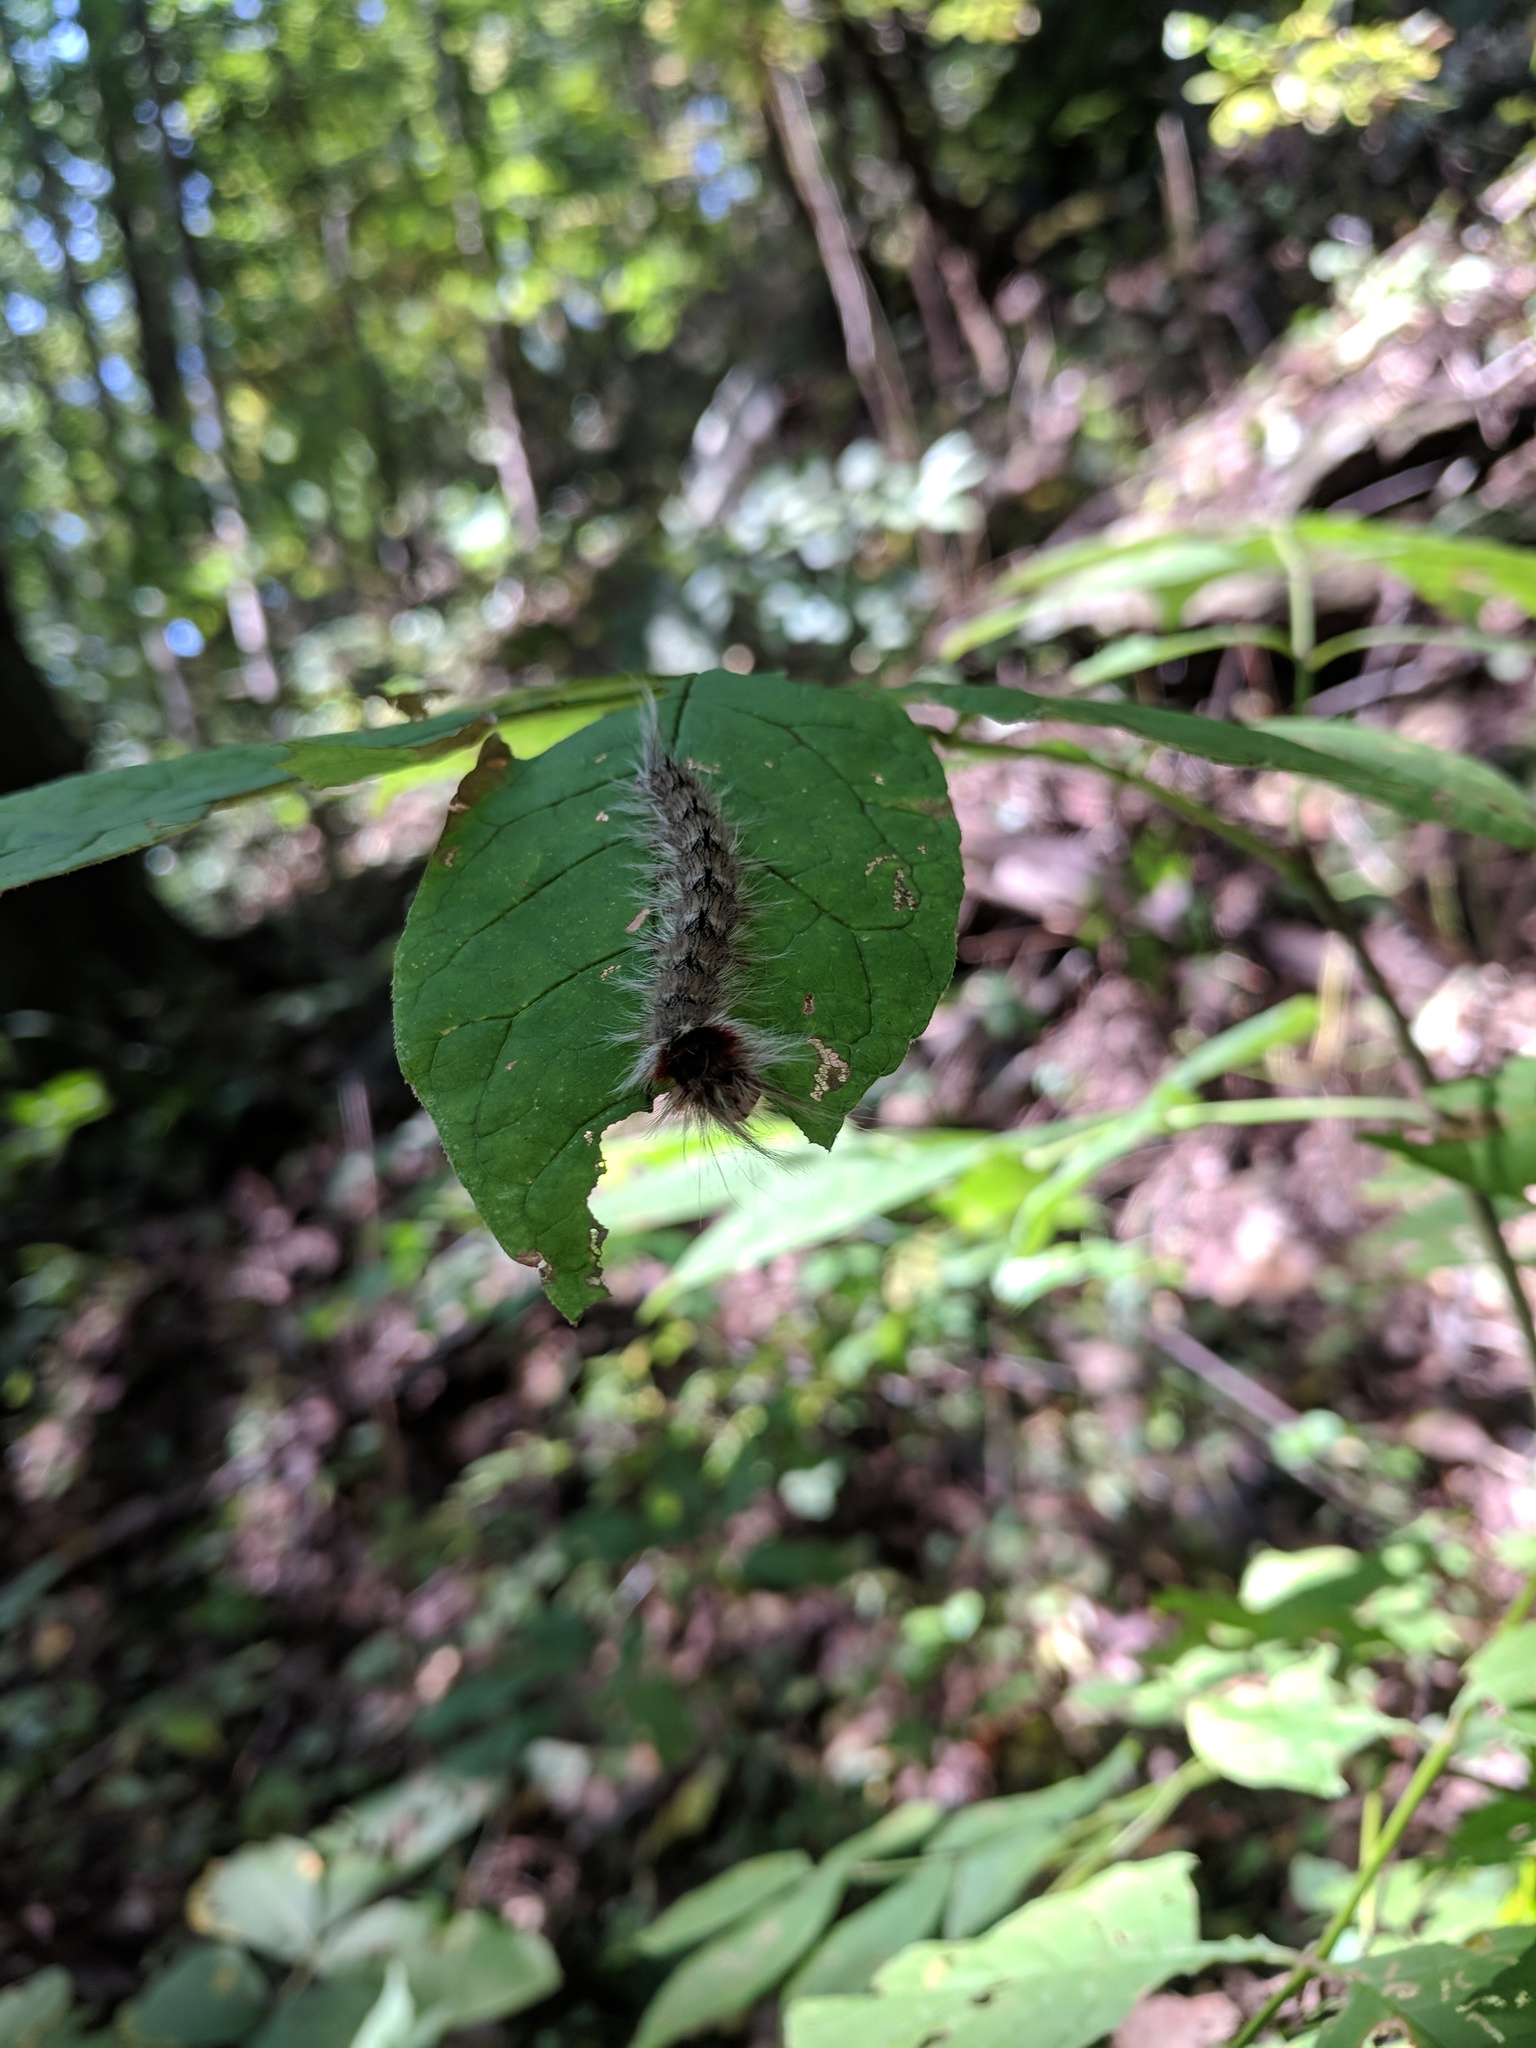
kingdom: Animalia
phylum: Arthropoda
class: Insecta
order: Lepidoptera
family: Apatelodidae
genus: Olceclostera
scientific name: Olceclostera angelica
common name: Angel moth
